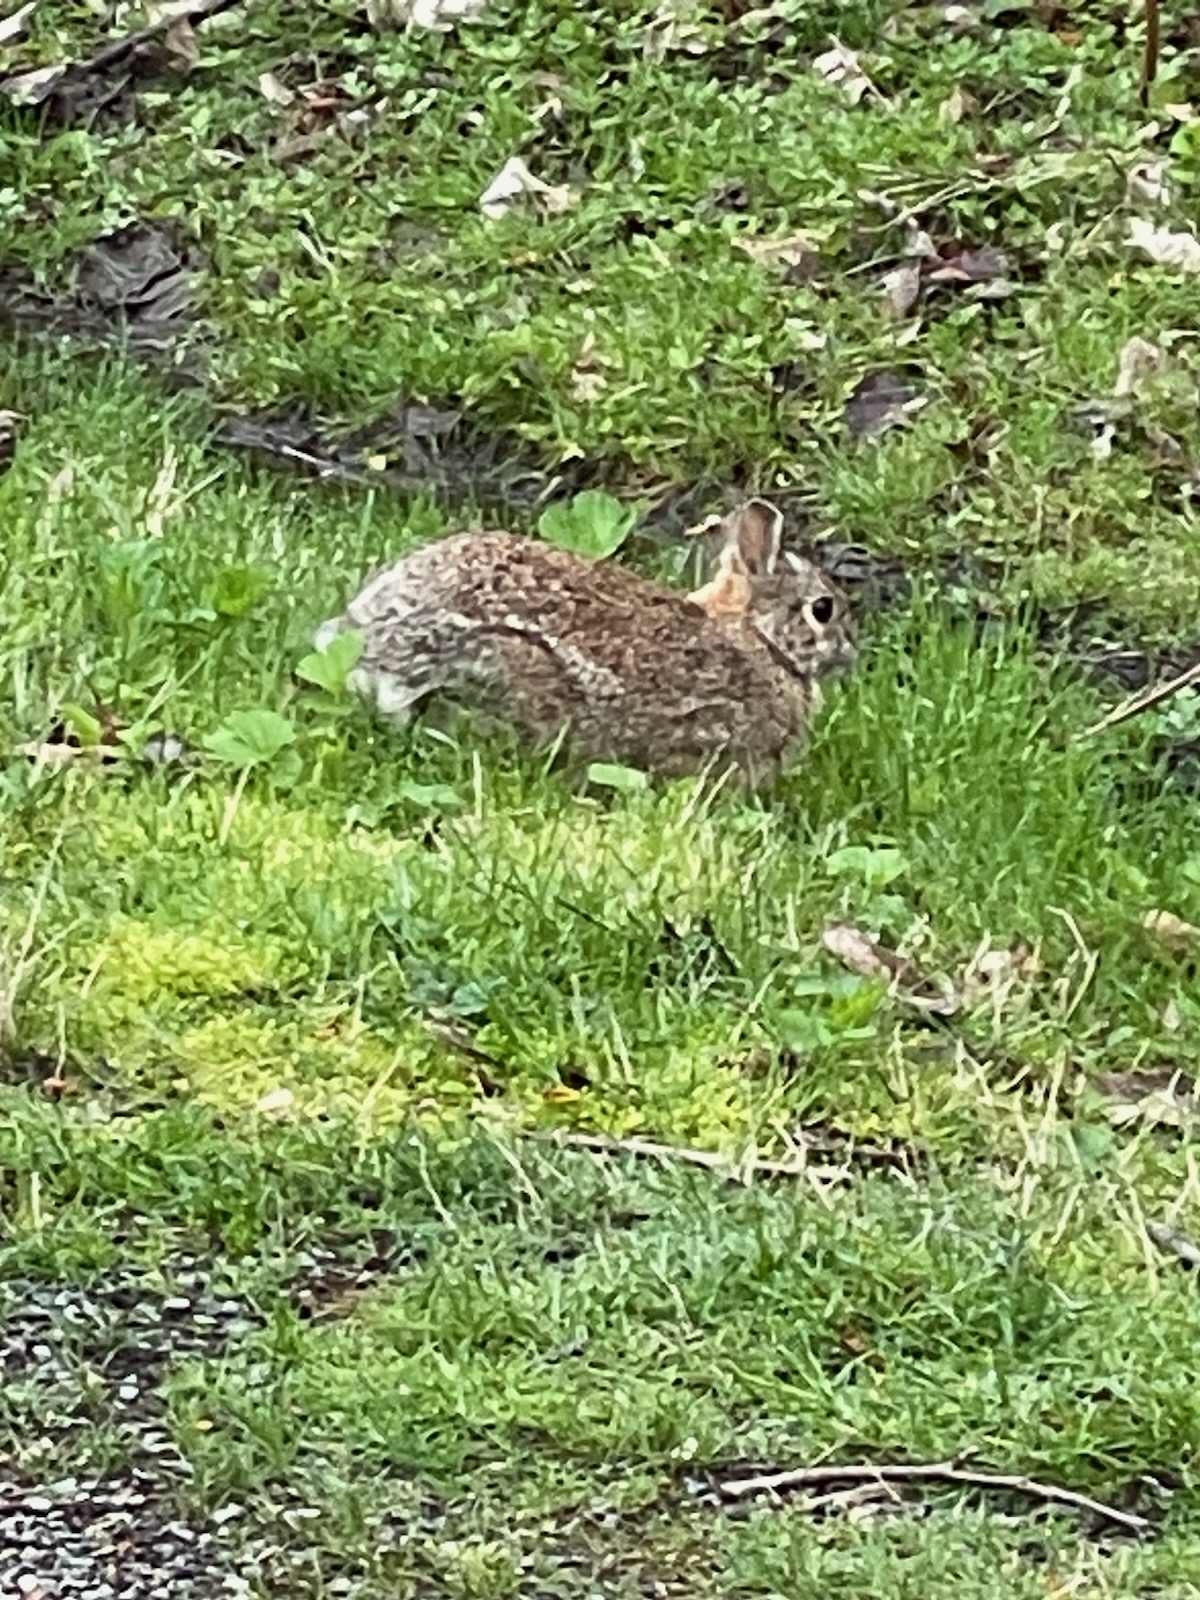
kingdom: Animalia
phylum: Chordata
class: Mammalia
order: Lagomorpha
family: Leporidae
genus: Sylvilagus
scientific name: Sylvilagus floridanus
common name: Eastern cottontail
